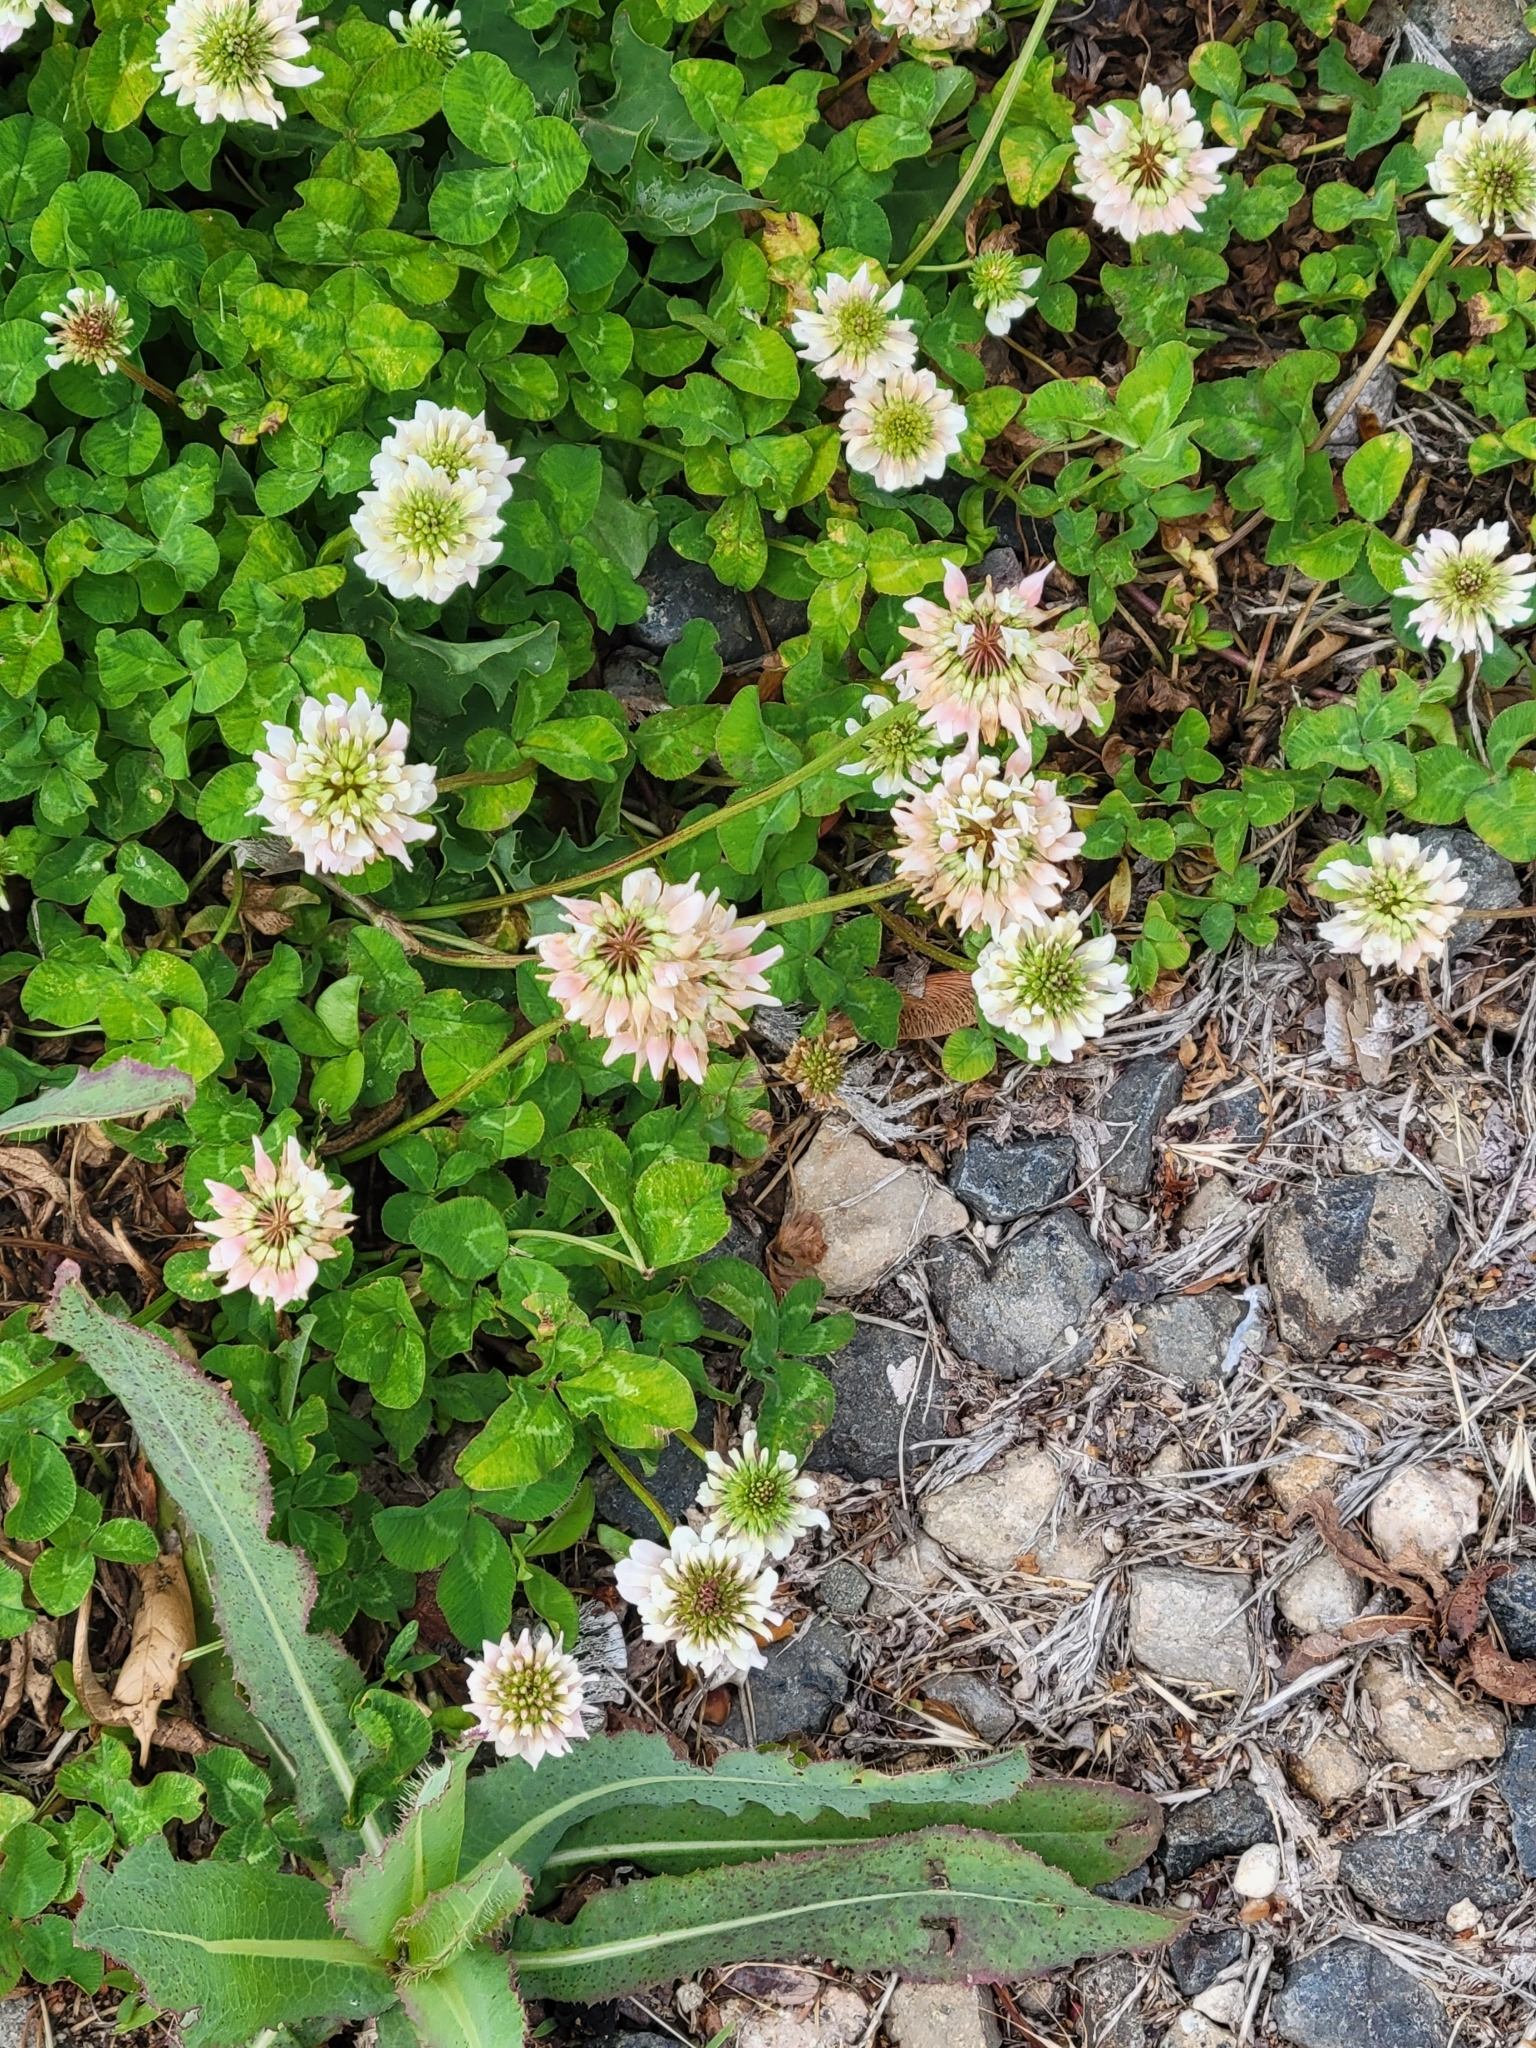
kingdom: Plantae
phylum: Tracheophyta
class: Magnoliopsida
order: Fabales
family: Fabaceae
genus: Trifolium
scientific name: Trifolium repens
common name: White clover
